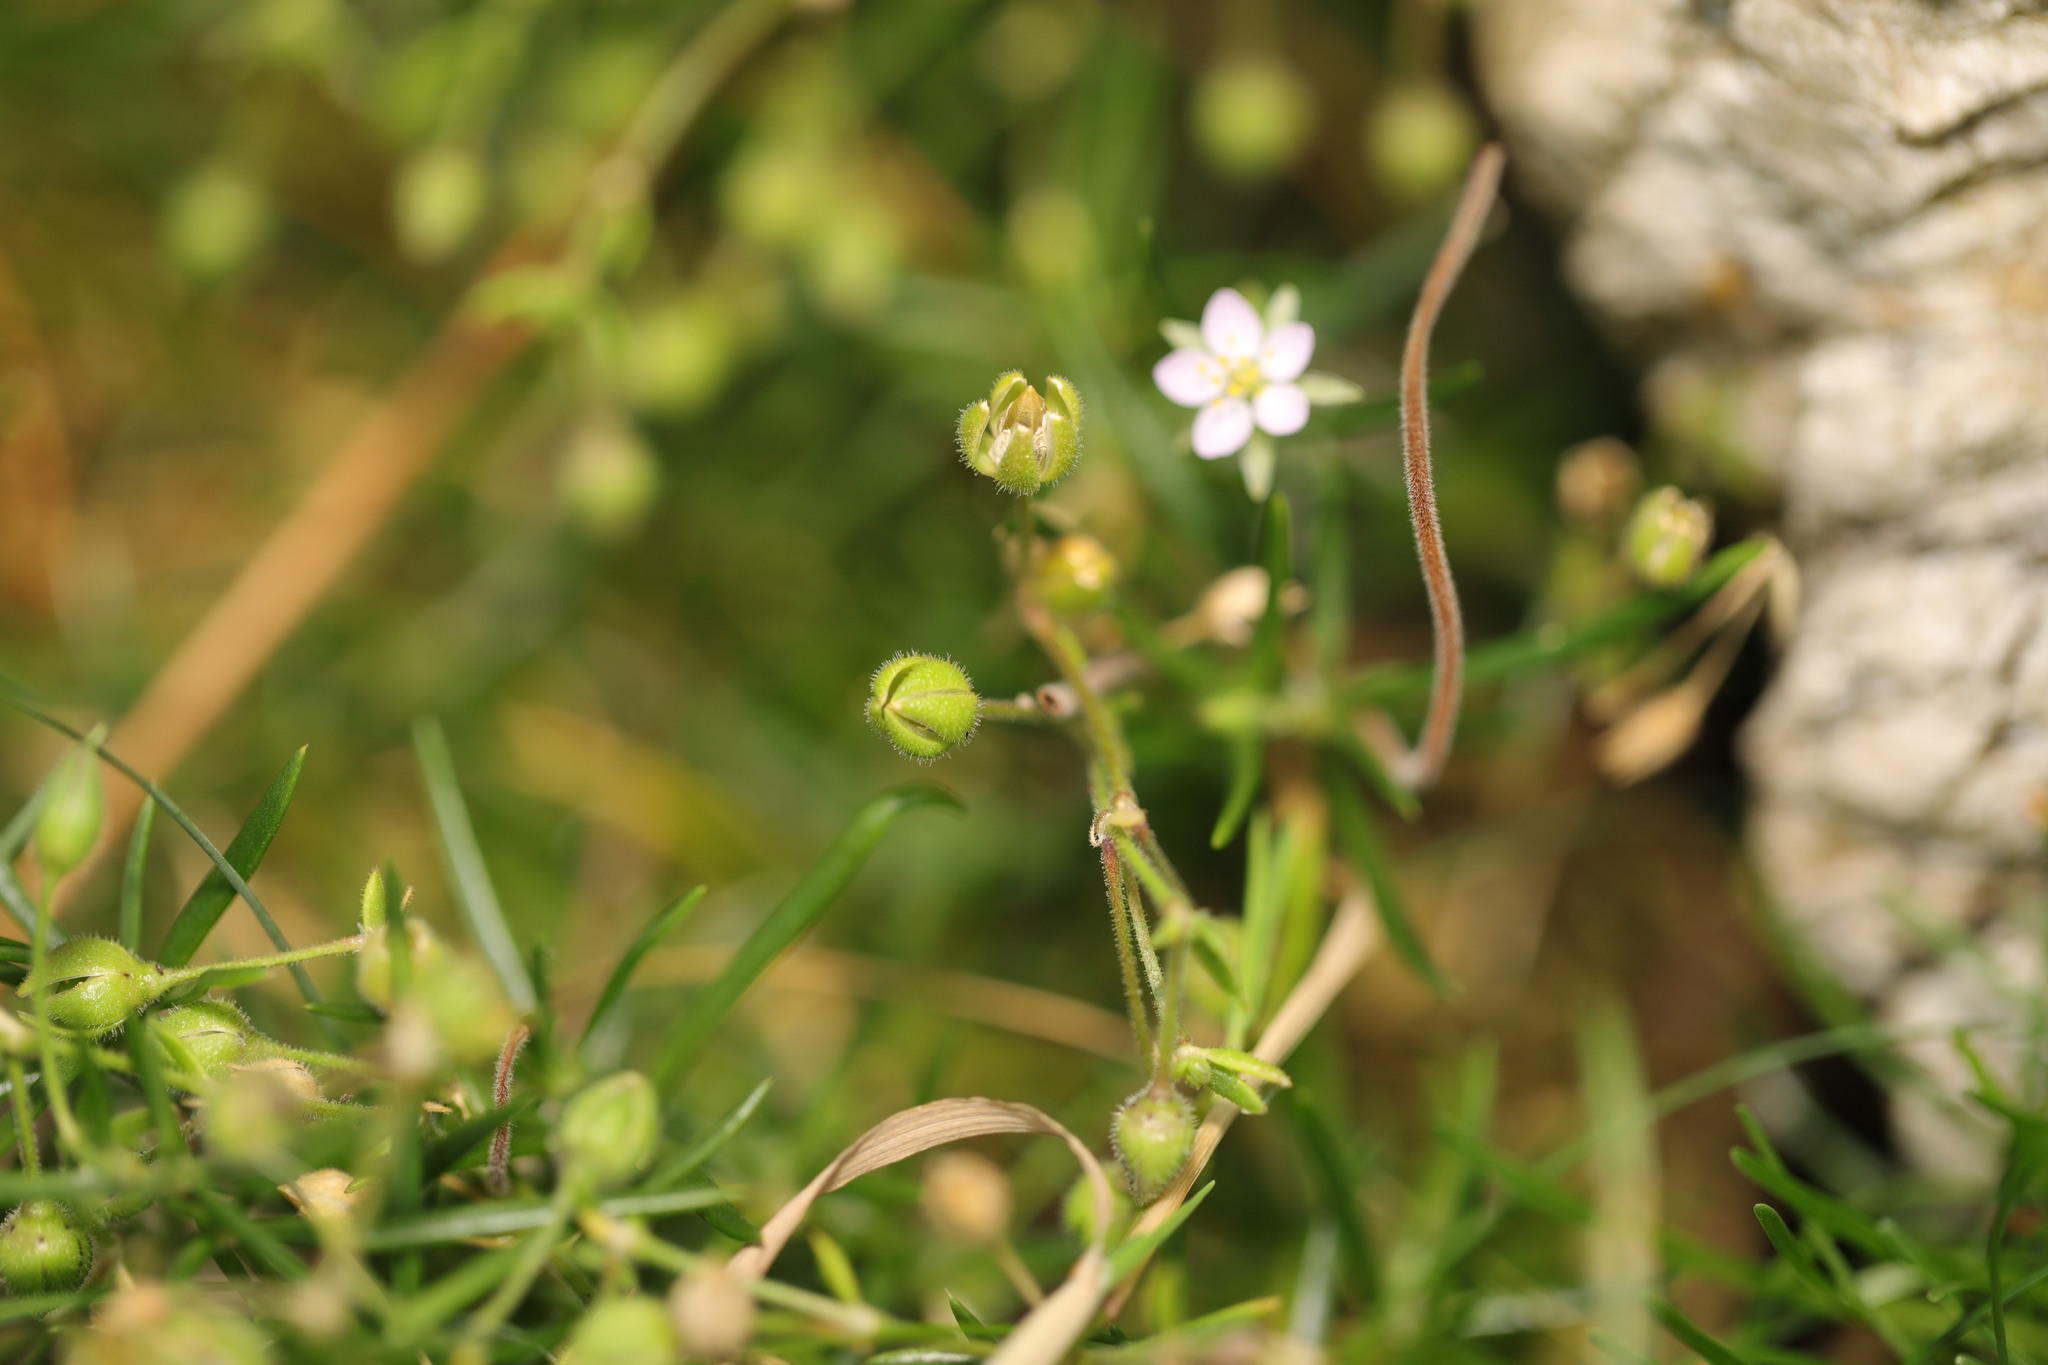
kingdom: Plantae
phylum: Tracheophyta
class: Magnoliopsida
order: Caryophyllales
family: Caryophyllaceae
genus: Spergula
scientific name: Spergula arvensis
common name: Corn spurrey
